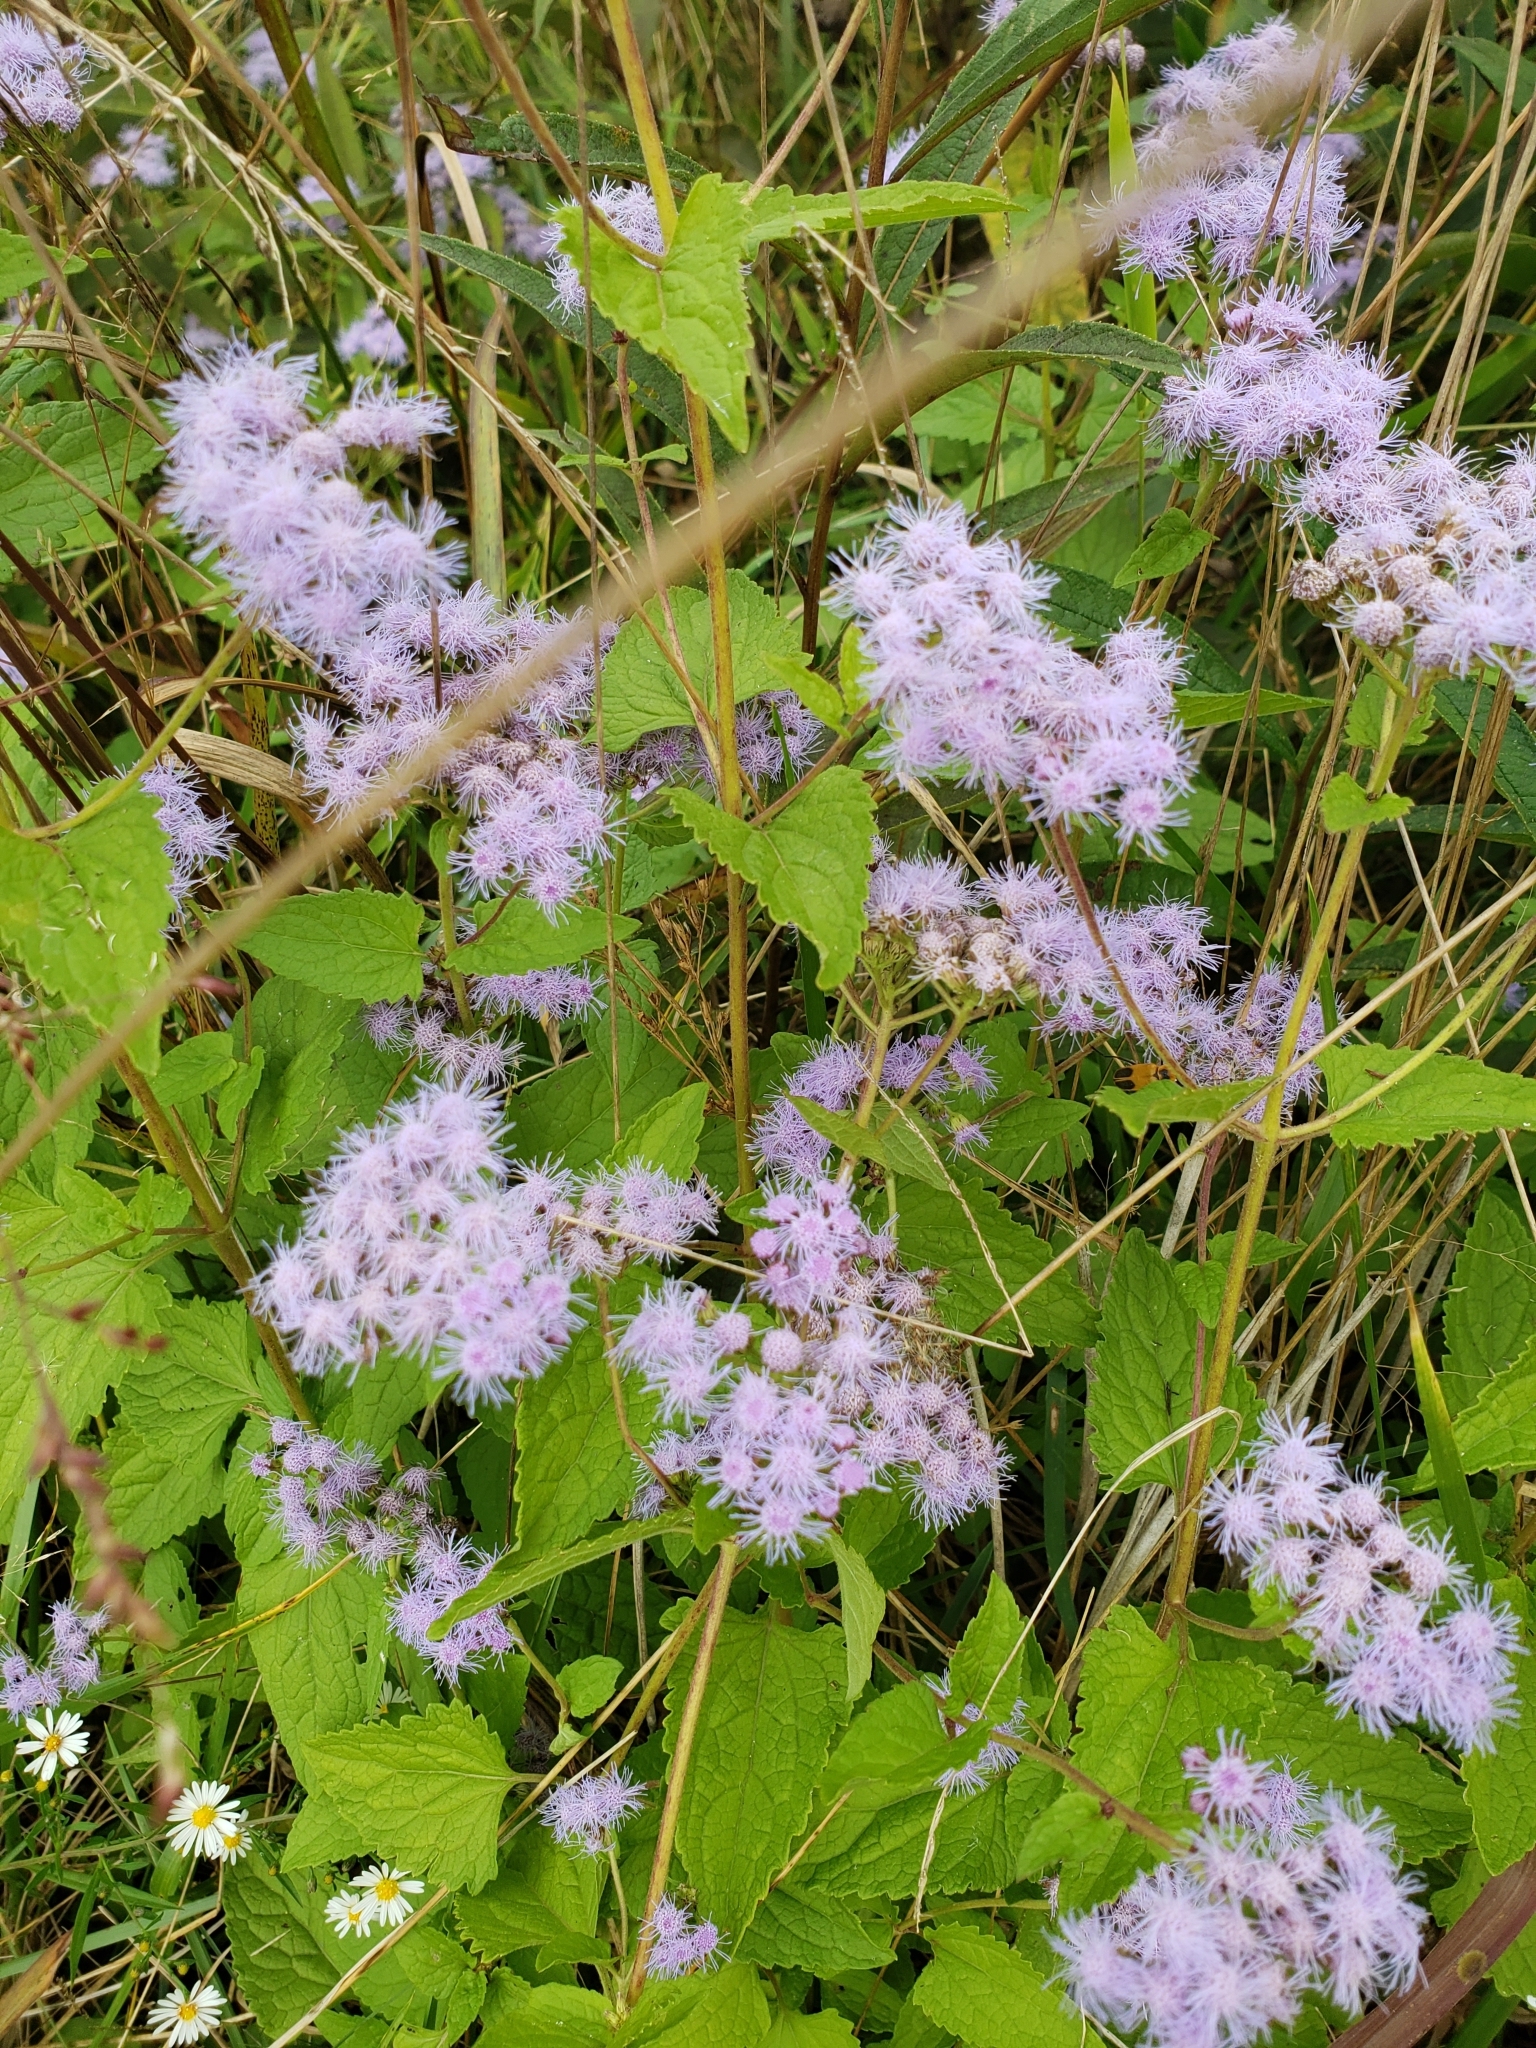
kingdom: Plantae
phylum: Tracheophyta
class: Magnoliopsida
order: Asterales
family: Asteraceae
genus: Conoclinium
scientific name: Conoclinium coelestinum
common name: Blue mistflower
